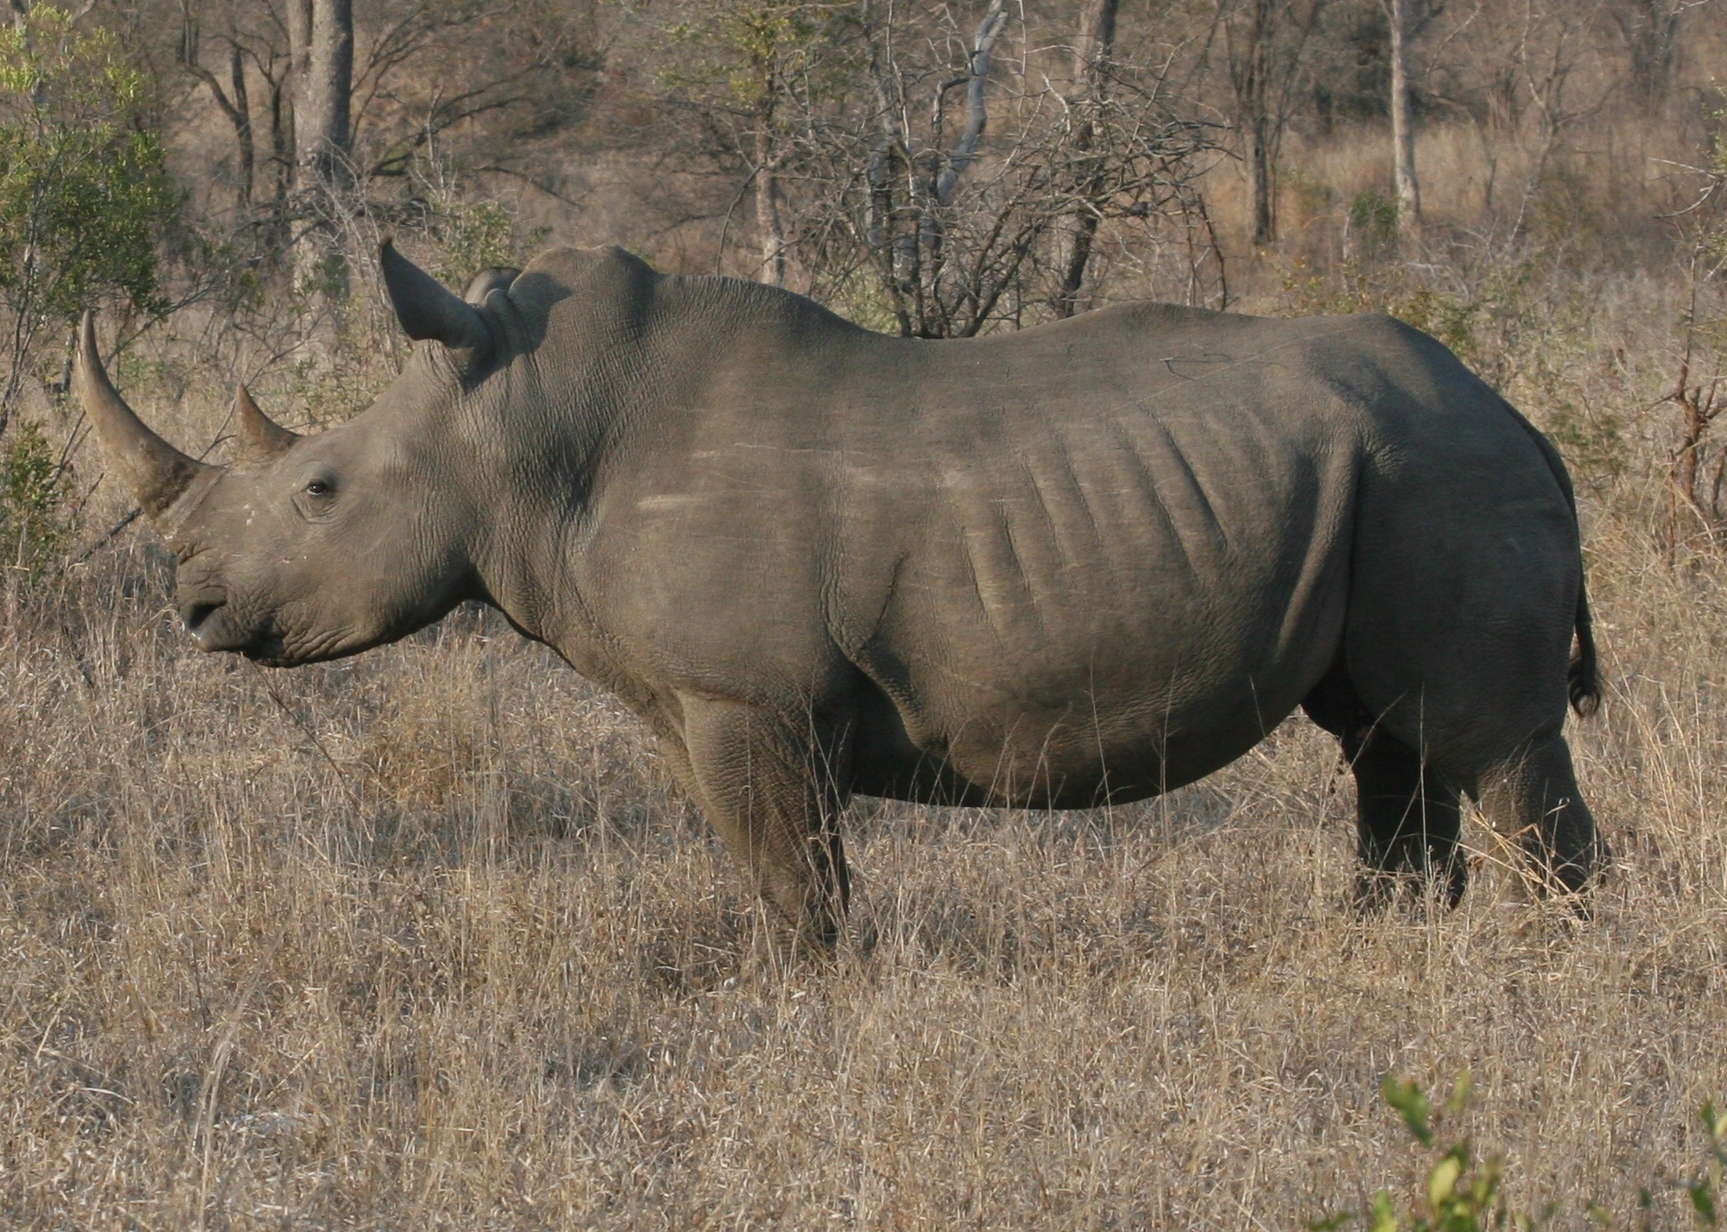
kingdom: Animalia
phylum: Chordata
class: Mammalia
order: Perissodactyla
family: Rhinocerotidae
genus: Ceratotherium
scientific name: Ceratotherium simum
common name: White rhinoceros
